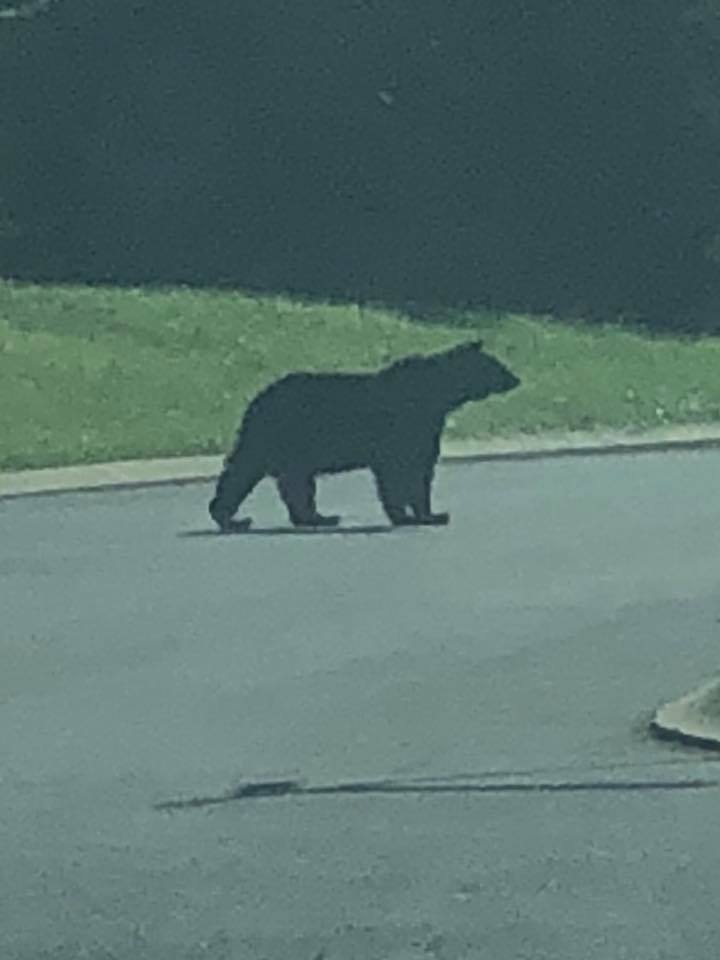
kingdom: Animalia
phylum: Chordata
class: Mammalia
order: Carnivora
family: Ursidae
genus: Ursus
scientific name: Ursus americanus
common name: American black bear
